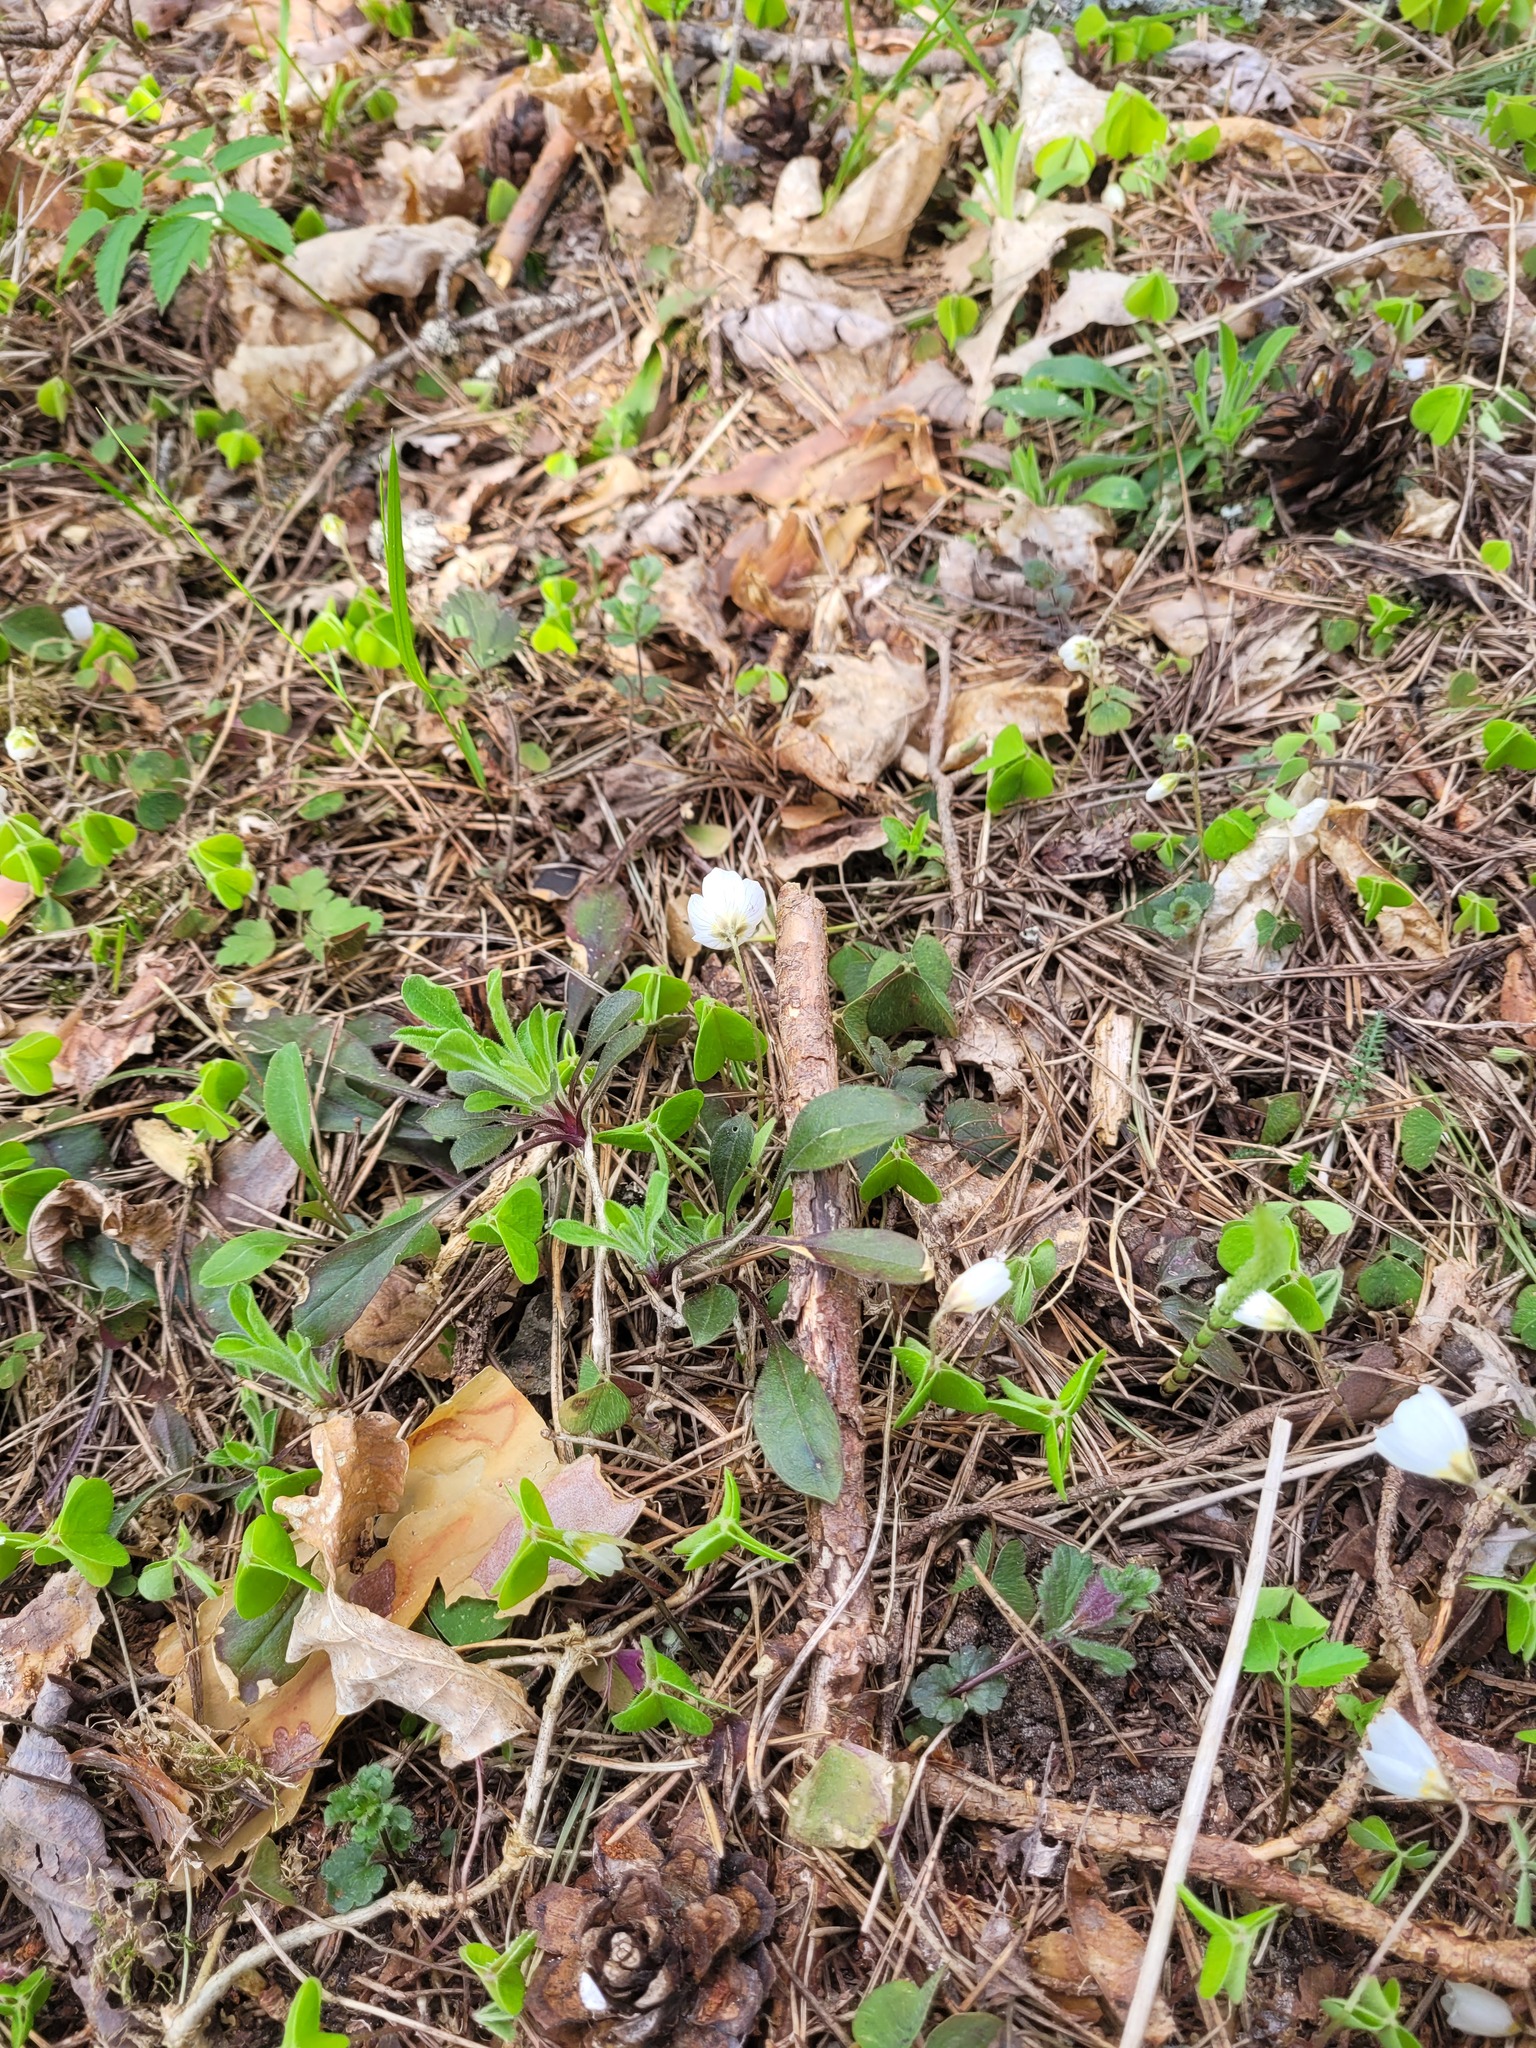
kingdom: Plantae
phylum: Tracheophyta
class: Magnoliopsida
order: Caryophyllales
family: Caryophyllaceae
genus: Silene
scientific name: Silene nutans
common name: Nottingham catchfly
